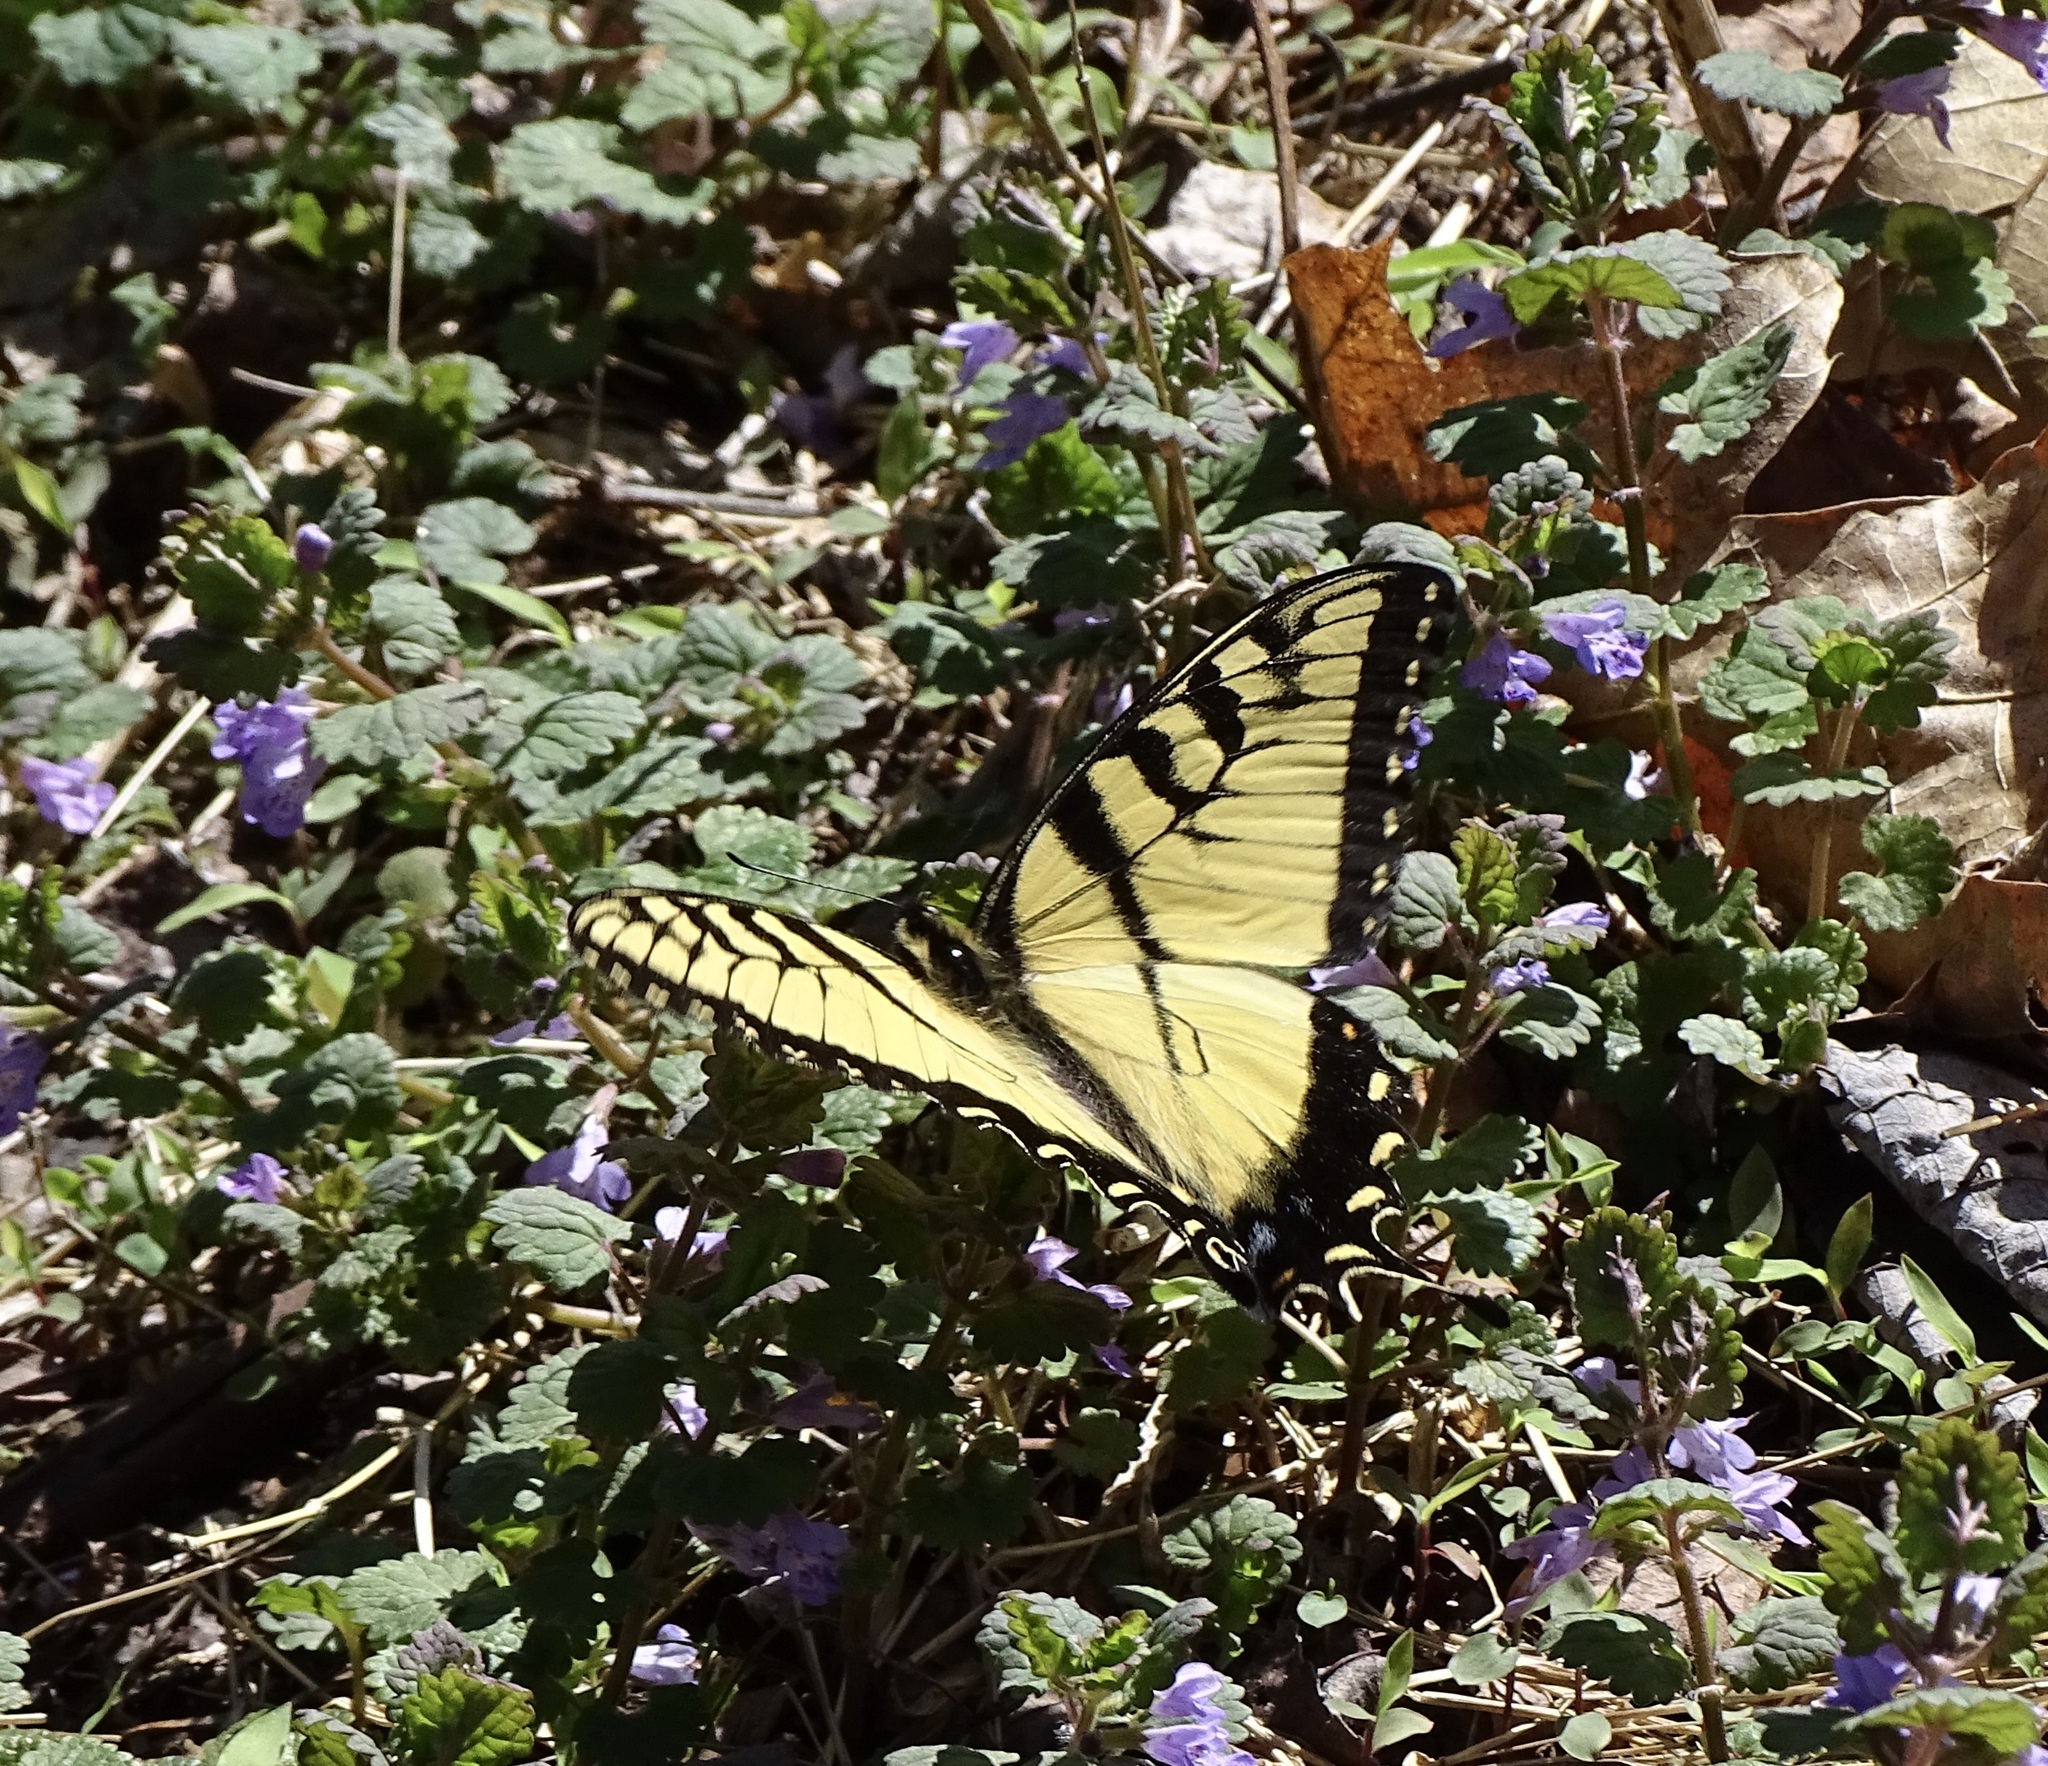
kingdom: Animalia
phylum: Arthropoda
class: Insecta
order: Lepidoptera
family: Papilionidae
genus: Papilio
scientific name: Papilio glaucus
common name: Tiger swallowtail
